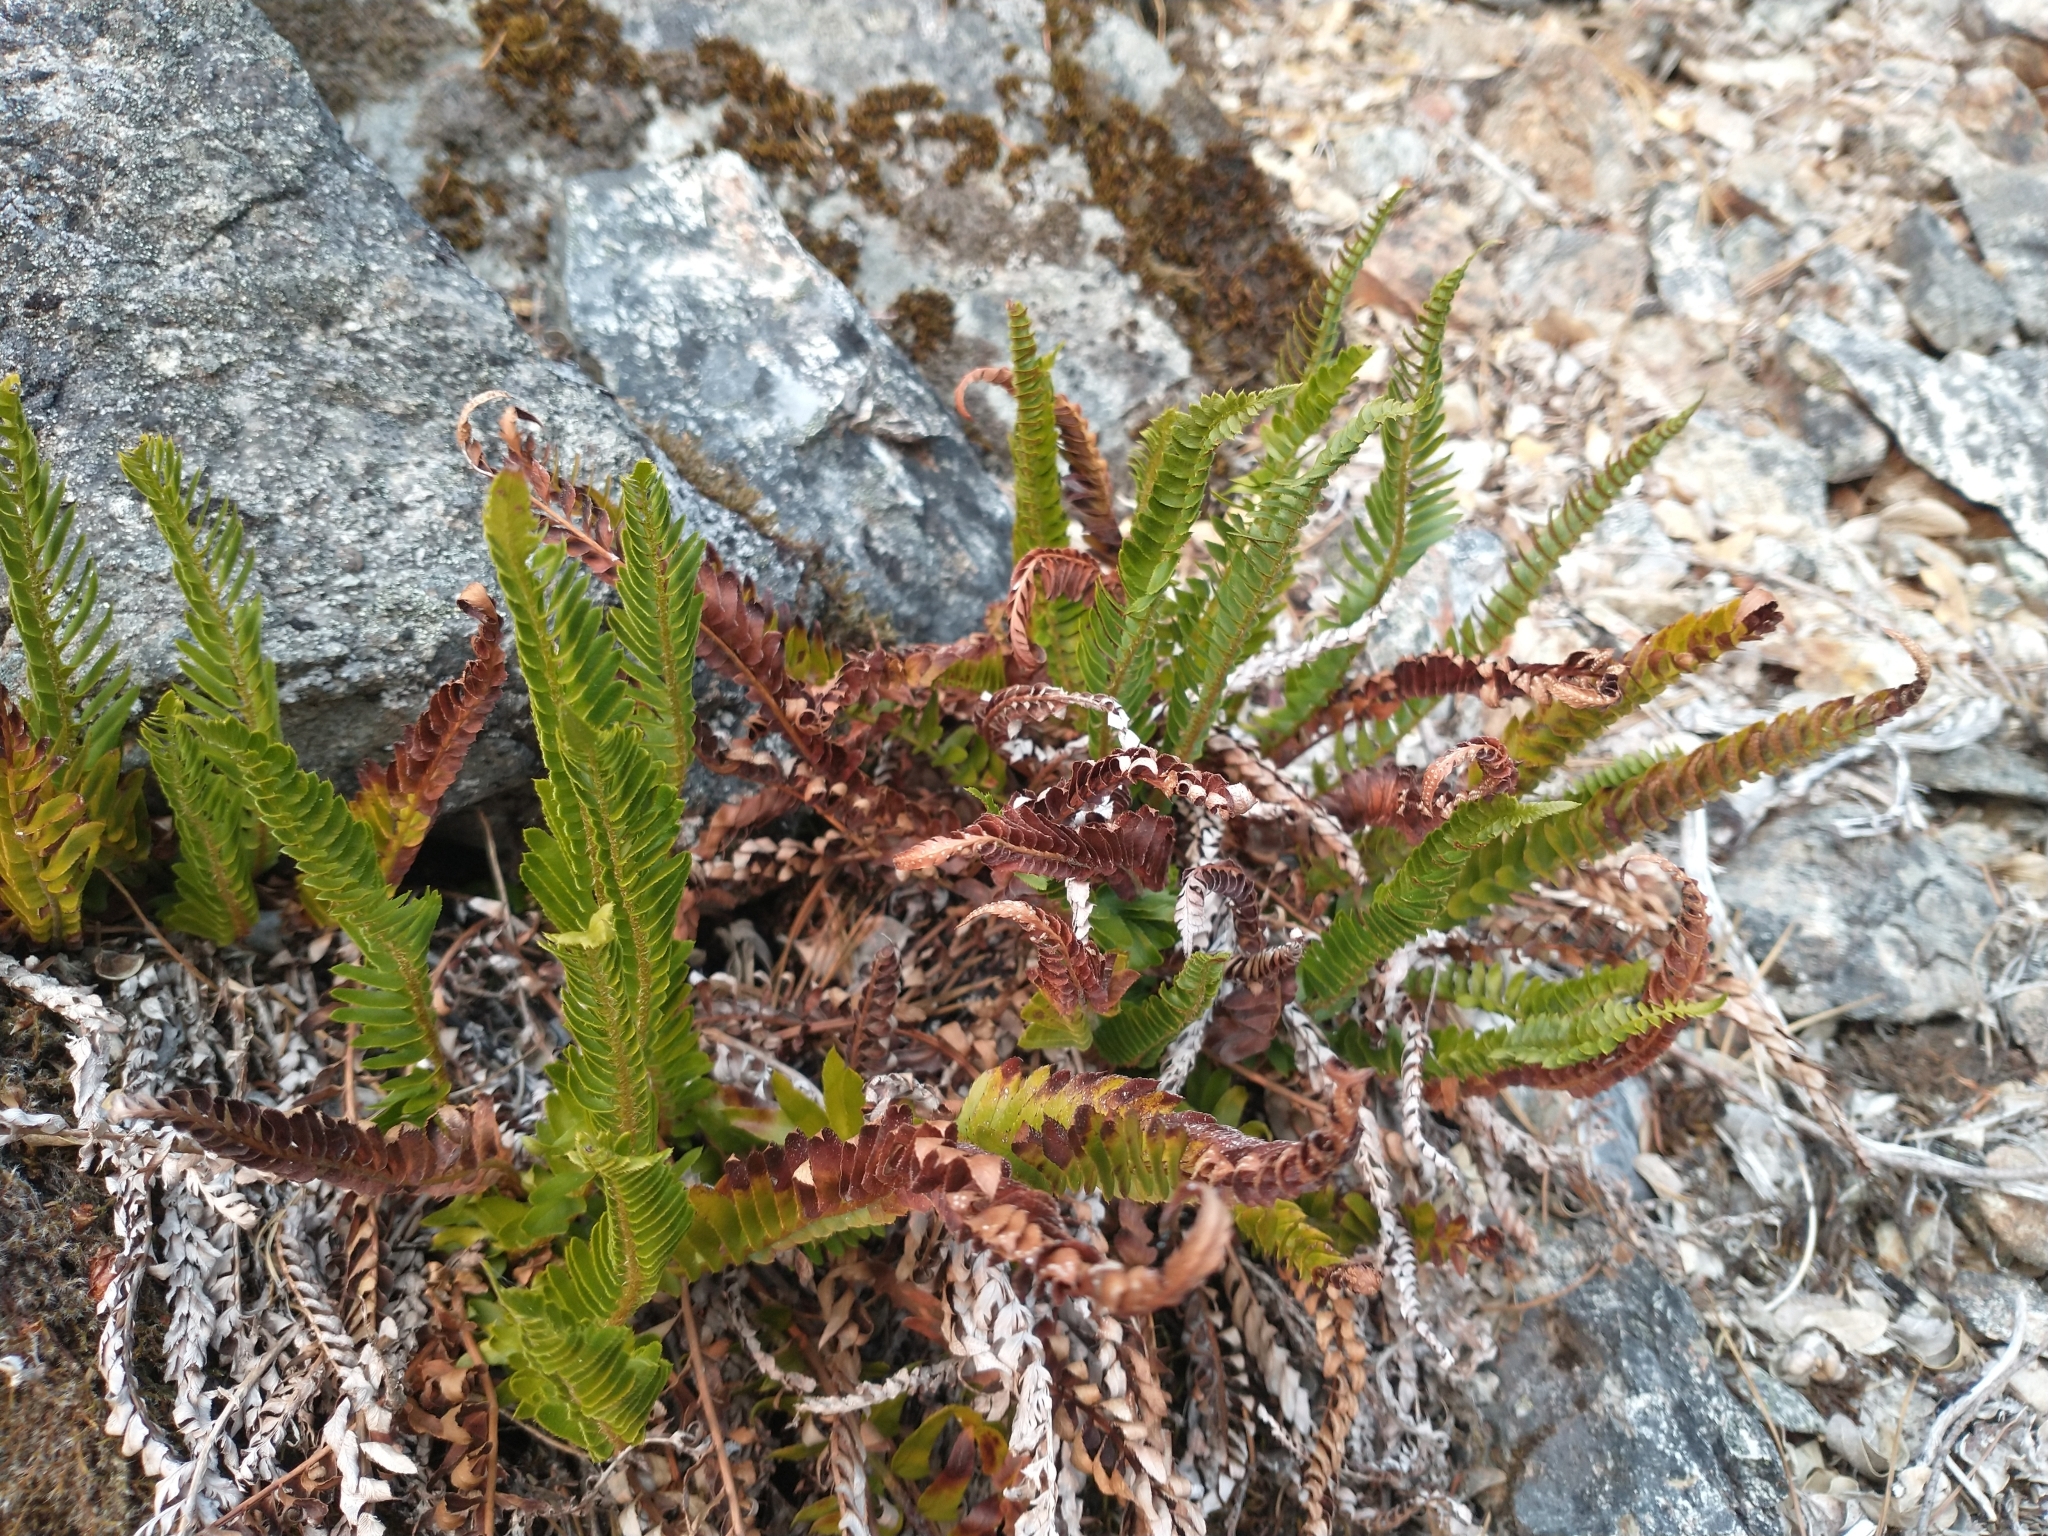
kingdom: Plantae
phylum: Tracheophyta
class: Polypodiopsida
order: Polypodiales
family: Dryopteridaceae
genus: Polystichum
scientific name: Polystichum imbricans
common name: Dwarf western sword fern
